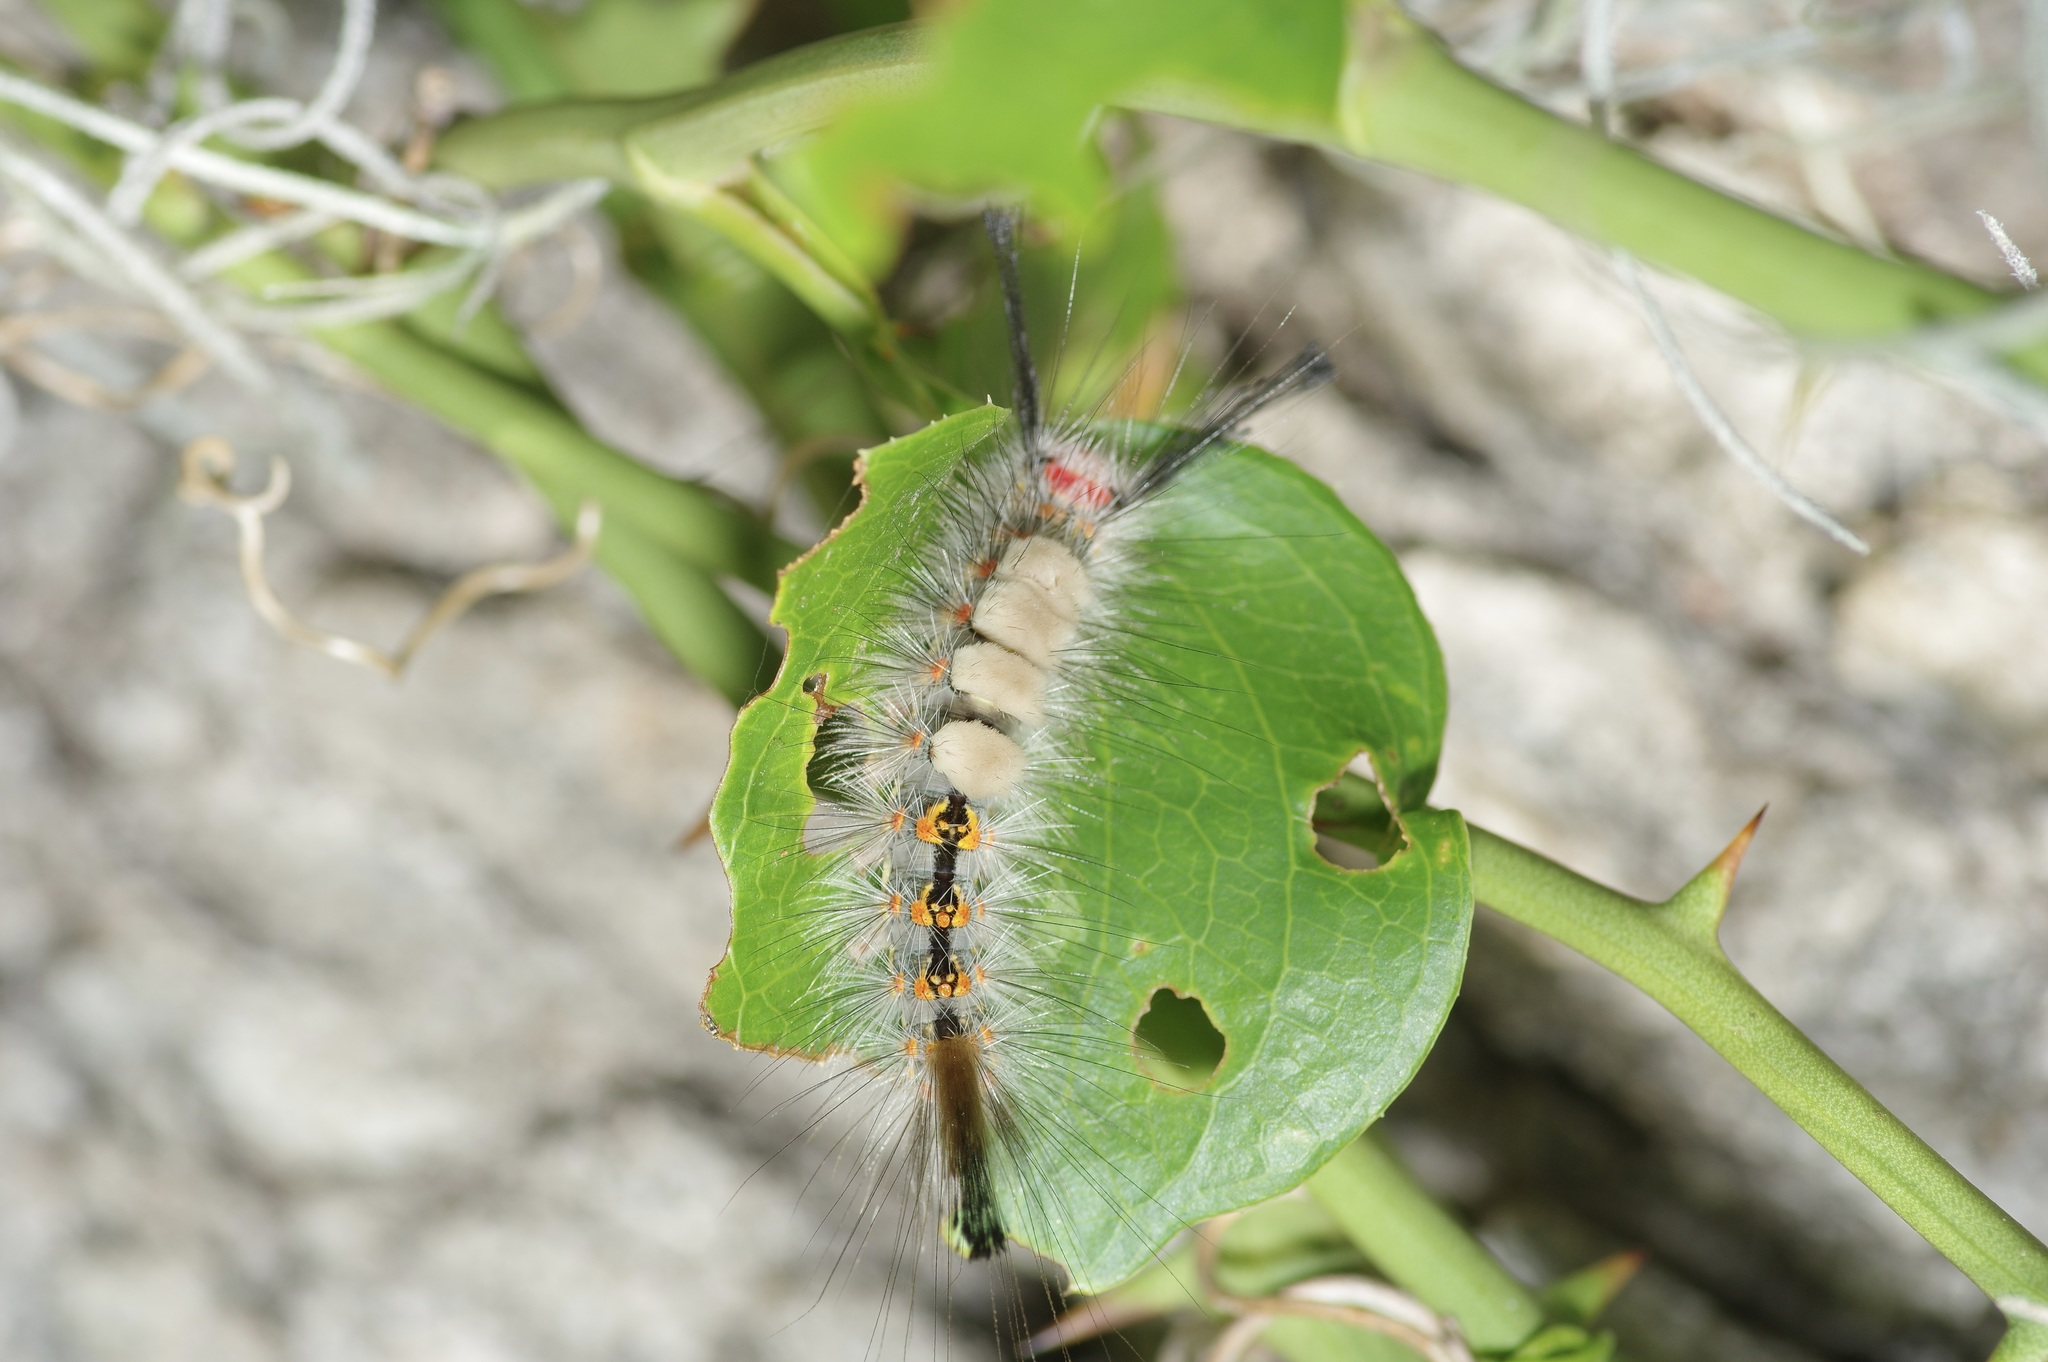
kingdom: Animalia
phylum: Arthropoda
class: Insecta
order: Lepidoptera
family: Erebidae
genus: Orgyia
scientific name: Orgyia detrita
